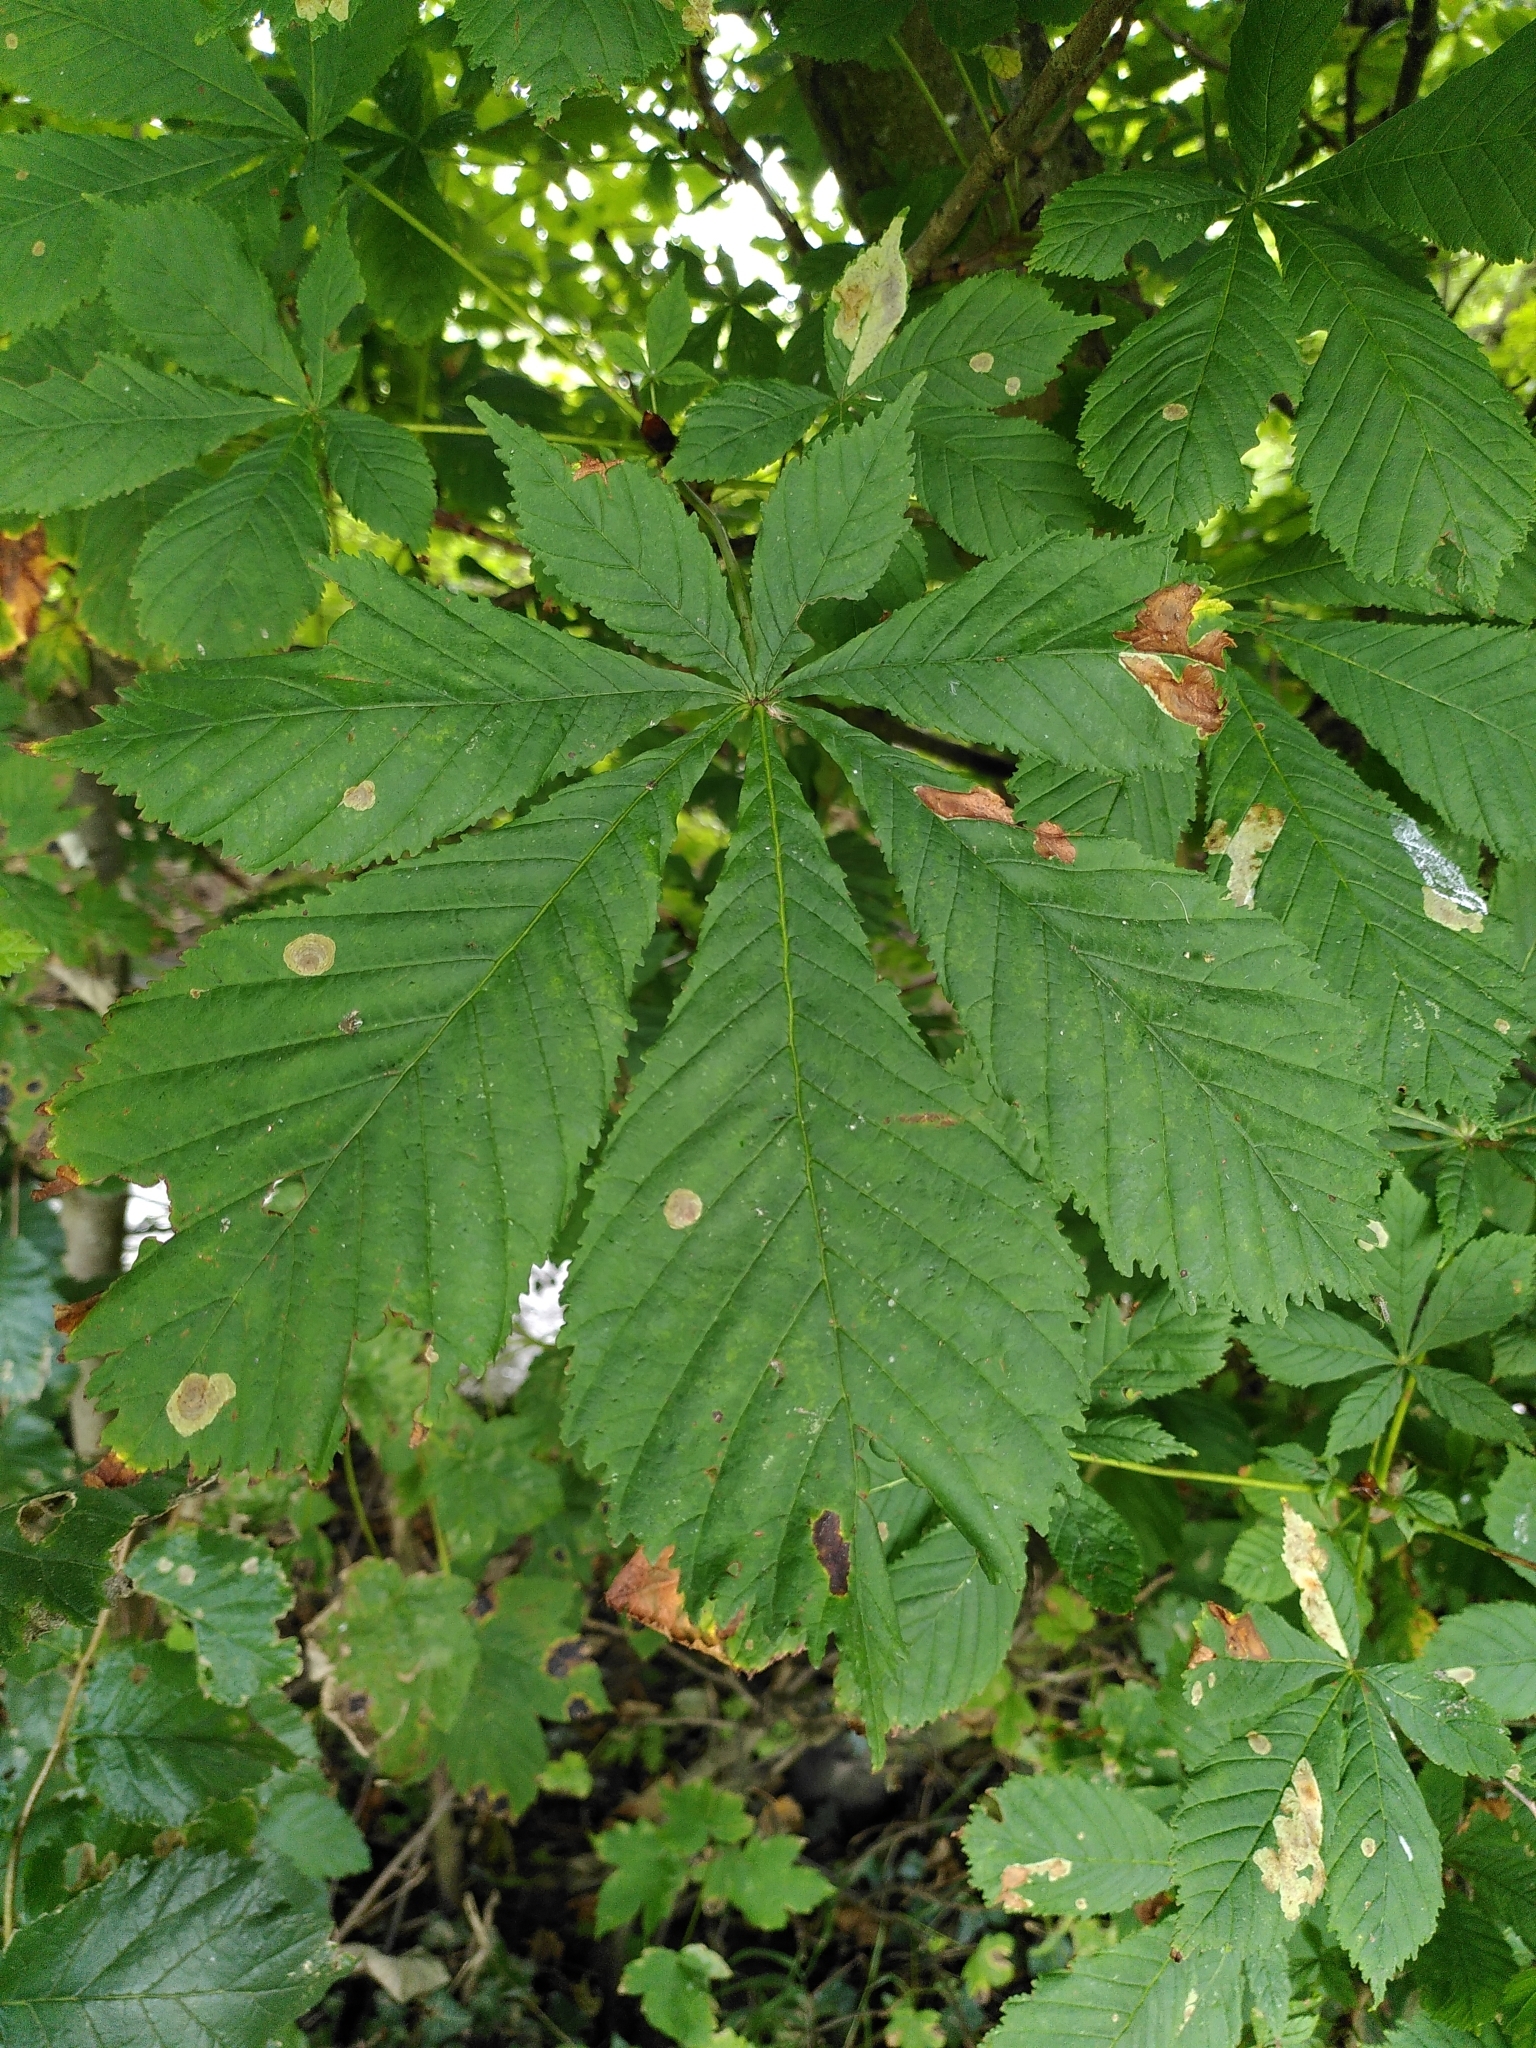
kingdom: Plantae
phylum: Tracheophyta
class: Magnoliopsida
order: Sapindales
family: Sapindaceae
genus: Aesculus
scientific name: Aesculus hippocastanum
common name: Horse-chestnut
